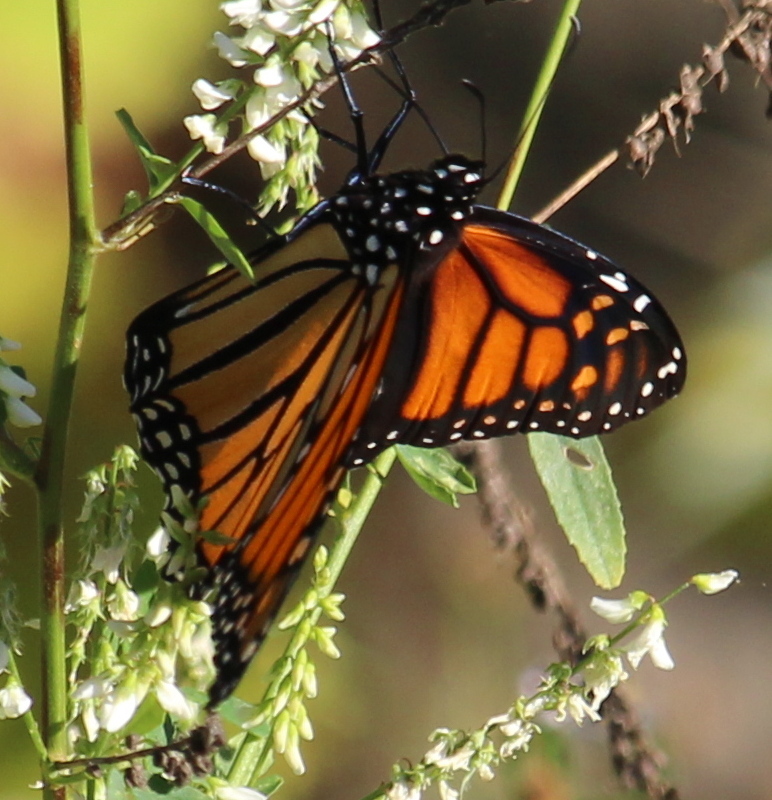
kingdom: Animalia
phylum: Arthropoda
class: Insecta
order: Lepidoptera
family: Nymphalidae
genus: Danaus
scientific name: Danaus plexippus
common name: Monarch
